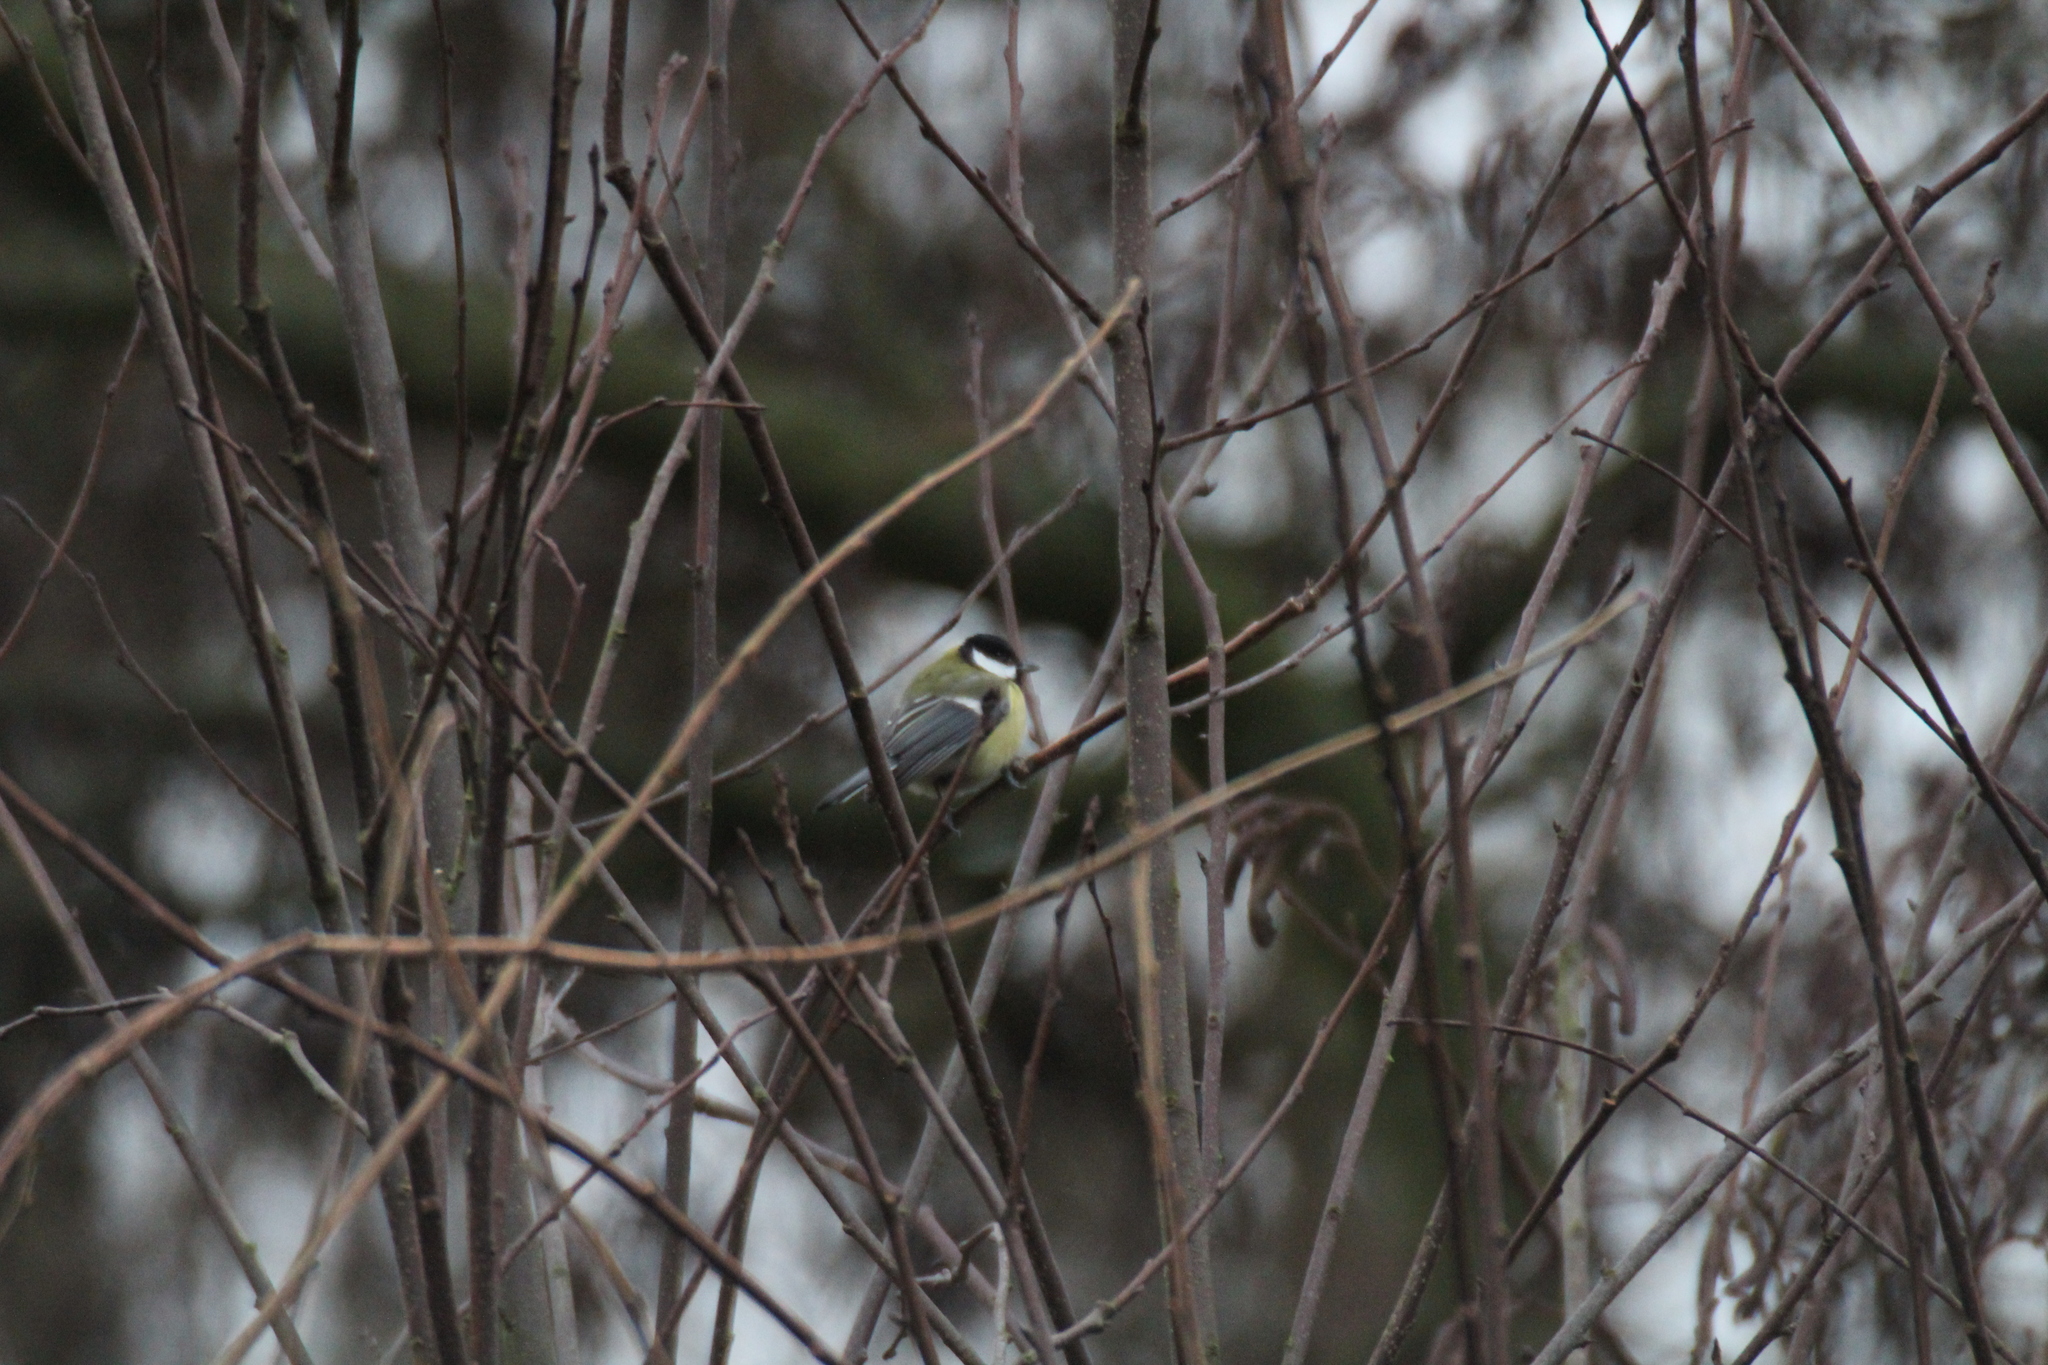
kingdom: Animalia
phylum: Chordata
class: Aves
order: Passeriformes
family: Paridae
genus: Parus
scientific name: Parus major
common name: Great tit
